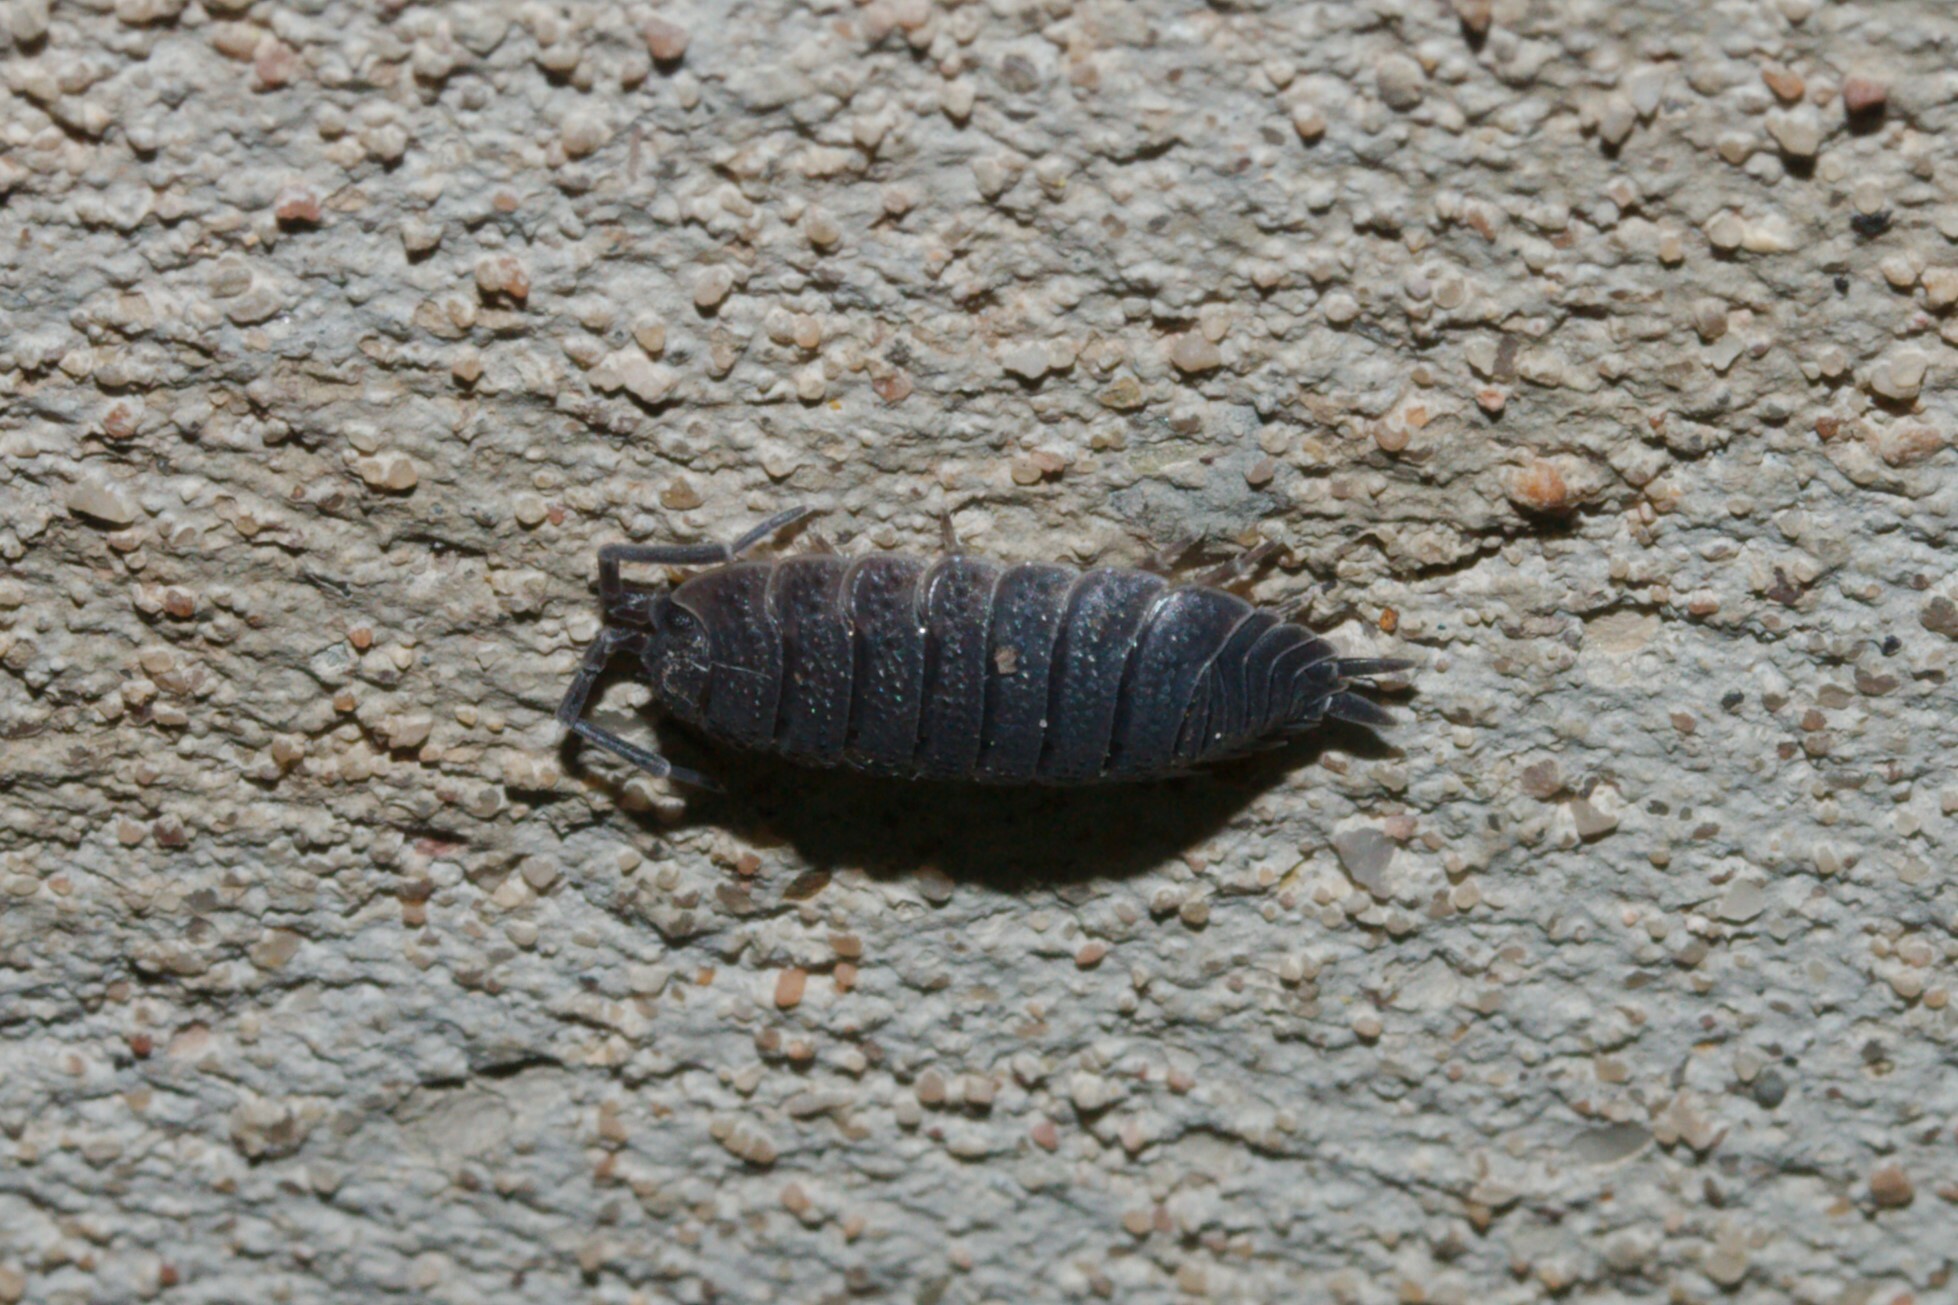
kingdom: Animalia
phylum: Arthropoda
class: Malacostraca
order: Isopoda
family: Porcellionidae
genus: Porcellio
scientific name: Porcellio scaber
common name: Common rough woodlouse
